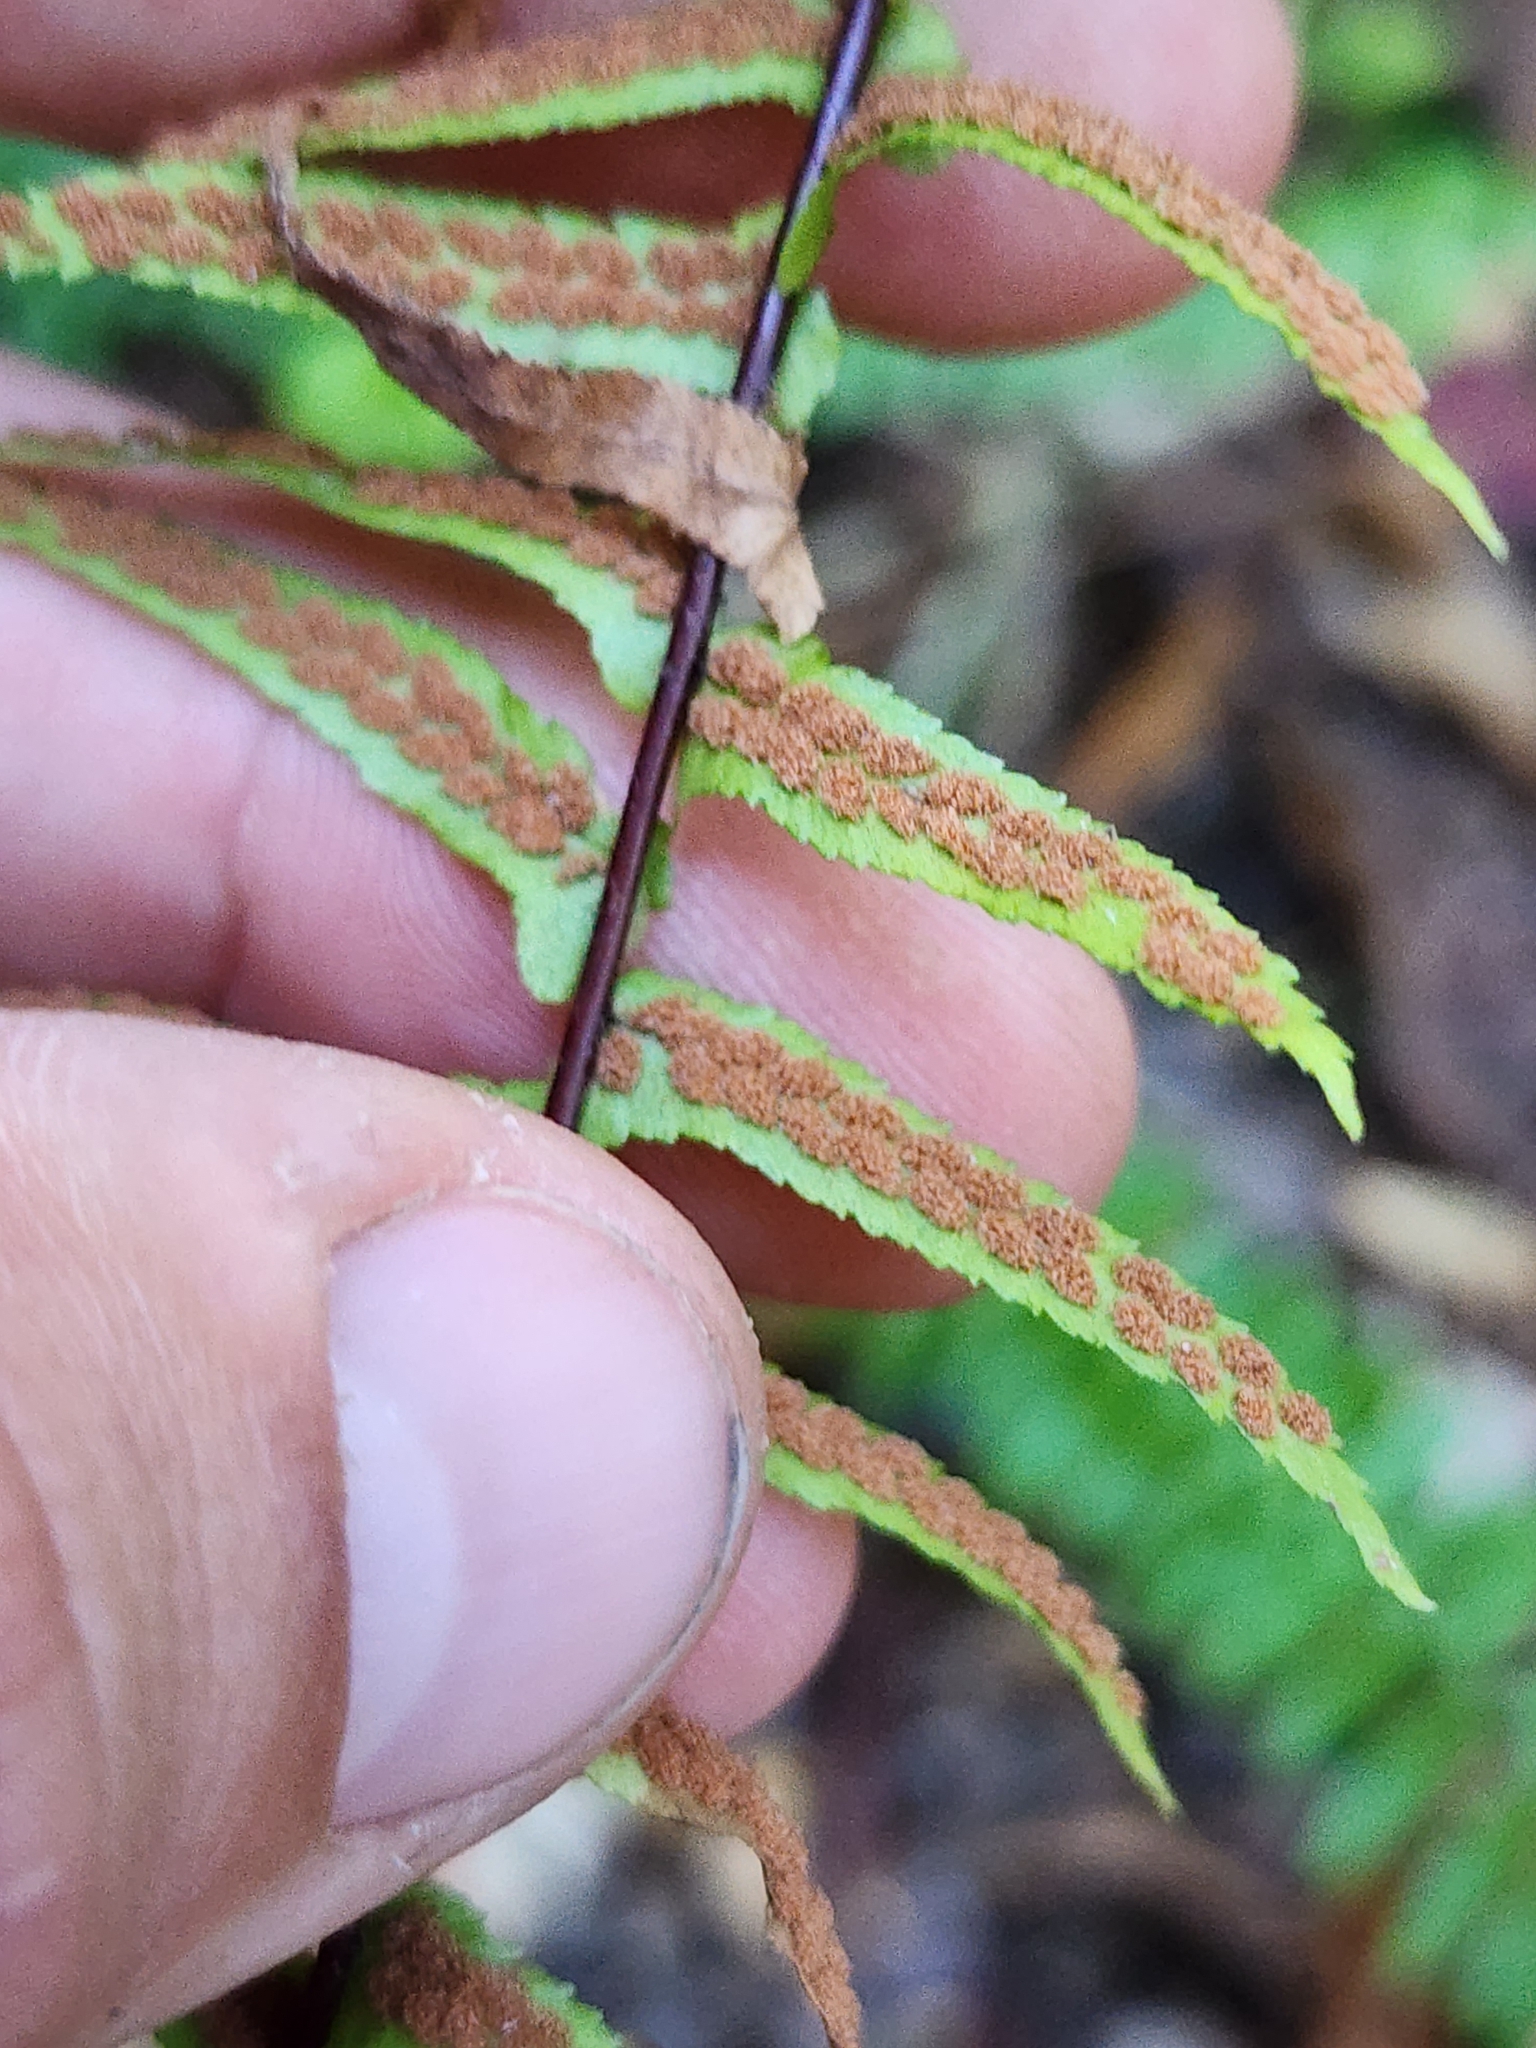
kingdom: Plantae
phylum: Tracheophyta
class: Polypodiopsida
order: Polypodiales
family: Aspleniaceae
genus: Asplenium
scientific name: Asplenium platyneuron
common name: Ebony spleenwort
